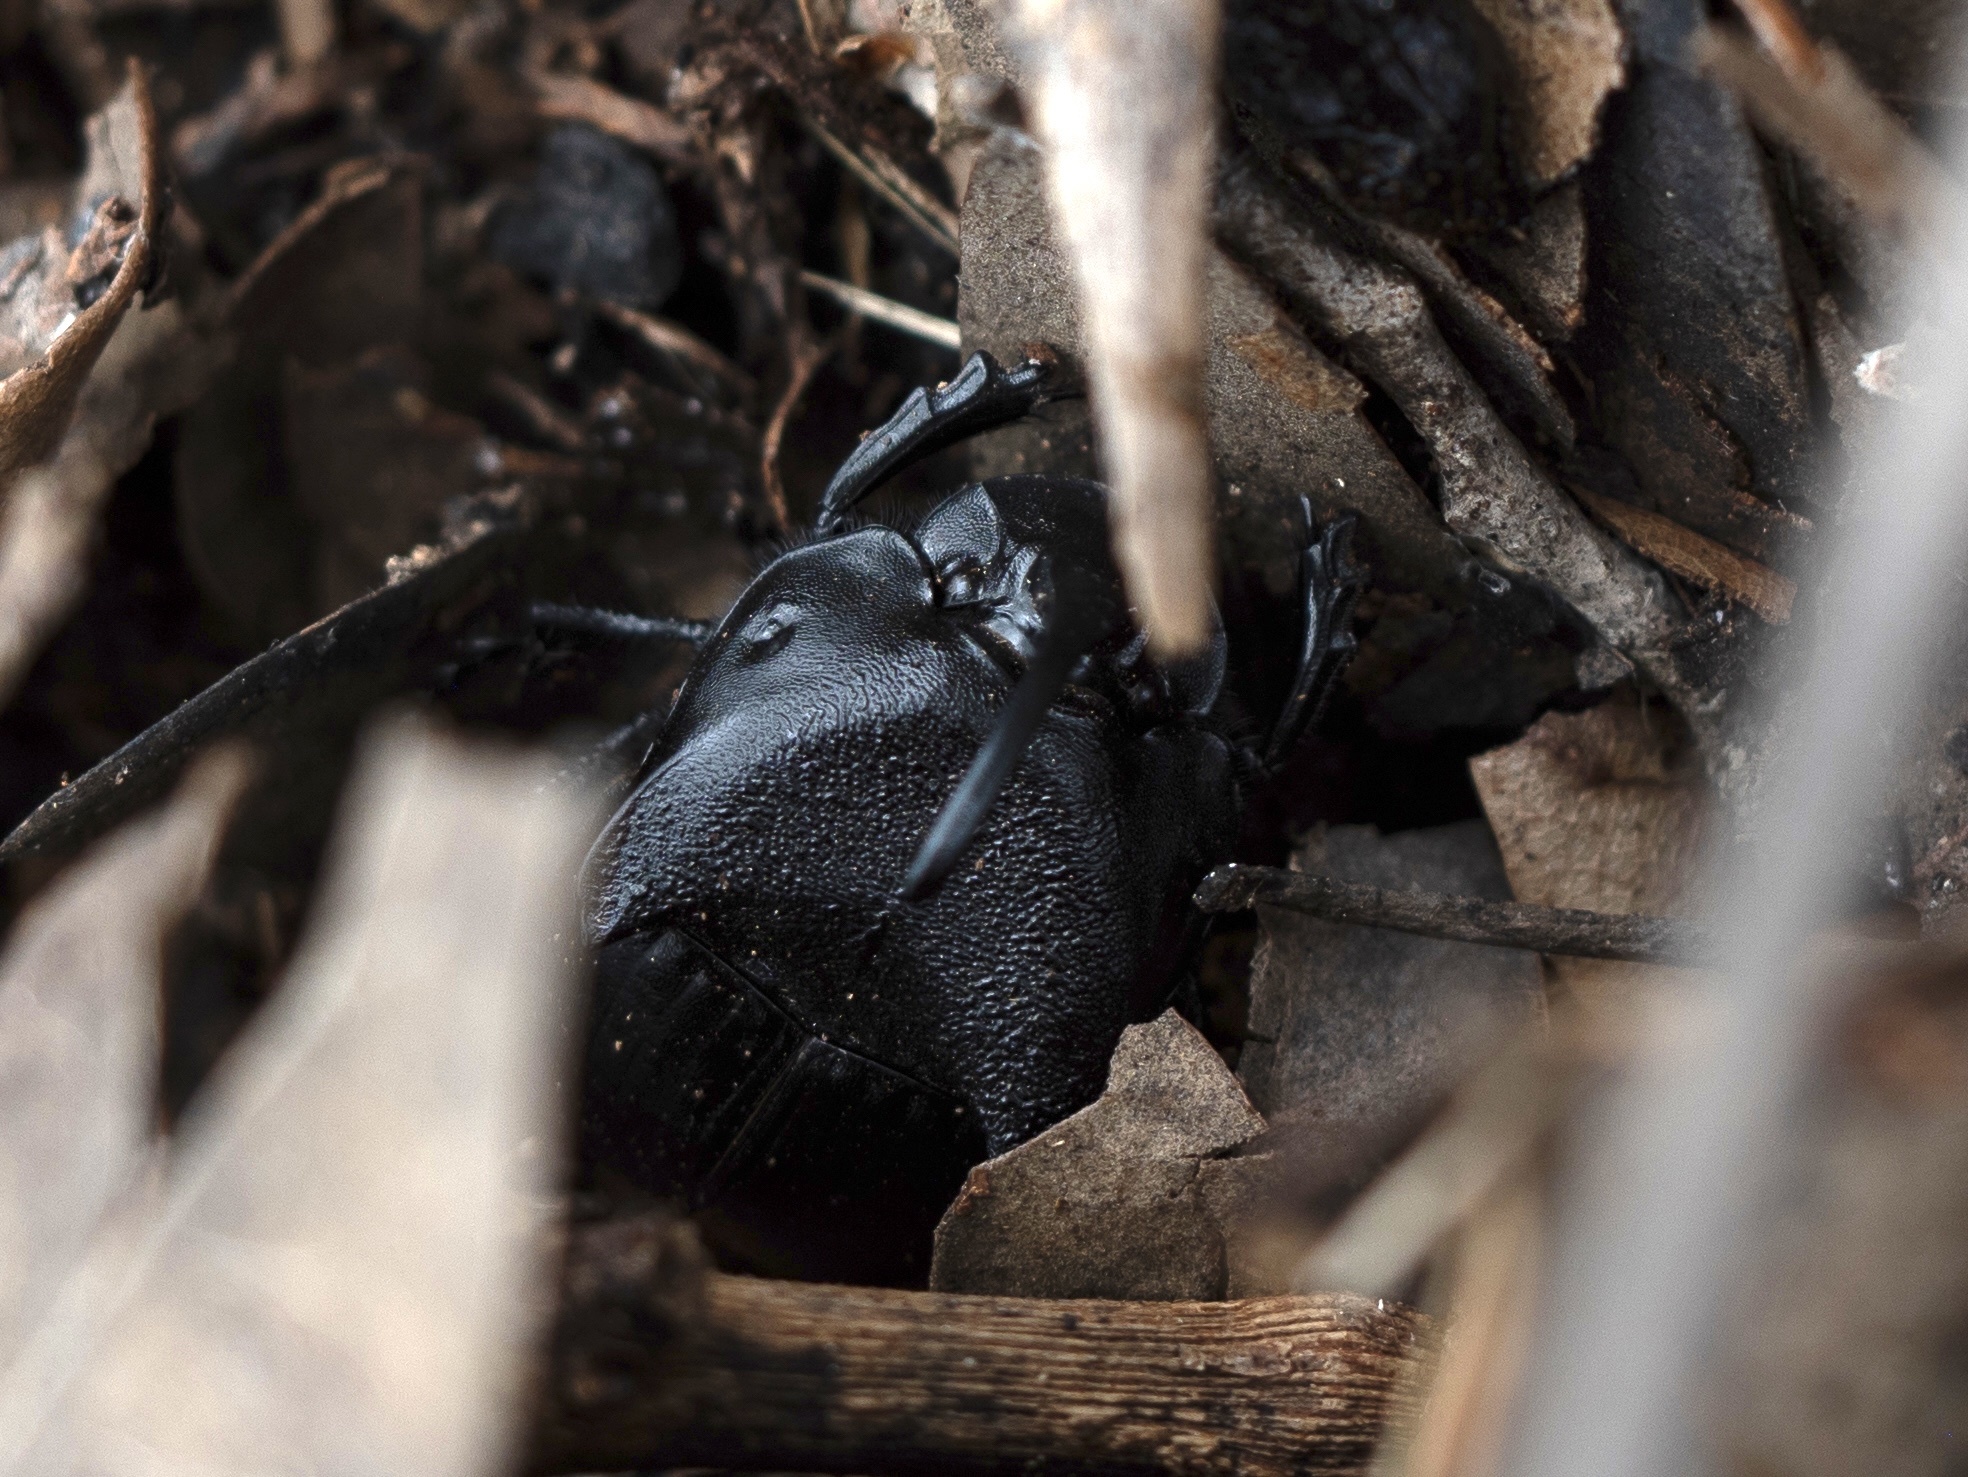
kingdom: Animalia
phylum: Arthropoda
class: Insecta
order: Coleoptera
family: Scarabaeidae
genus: Phanaeus
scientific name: Phanaeus texensis
